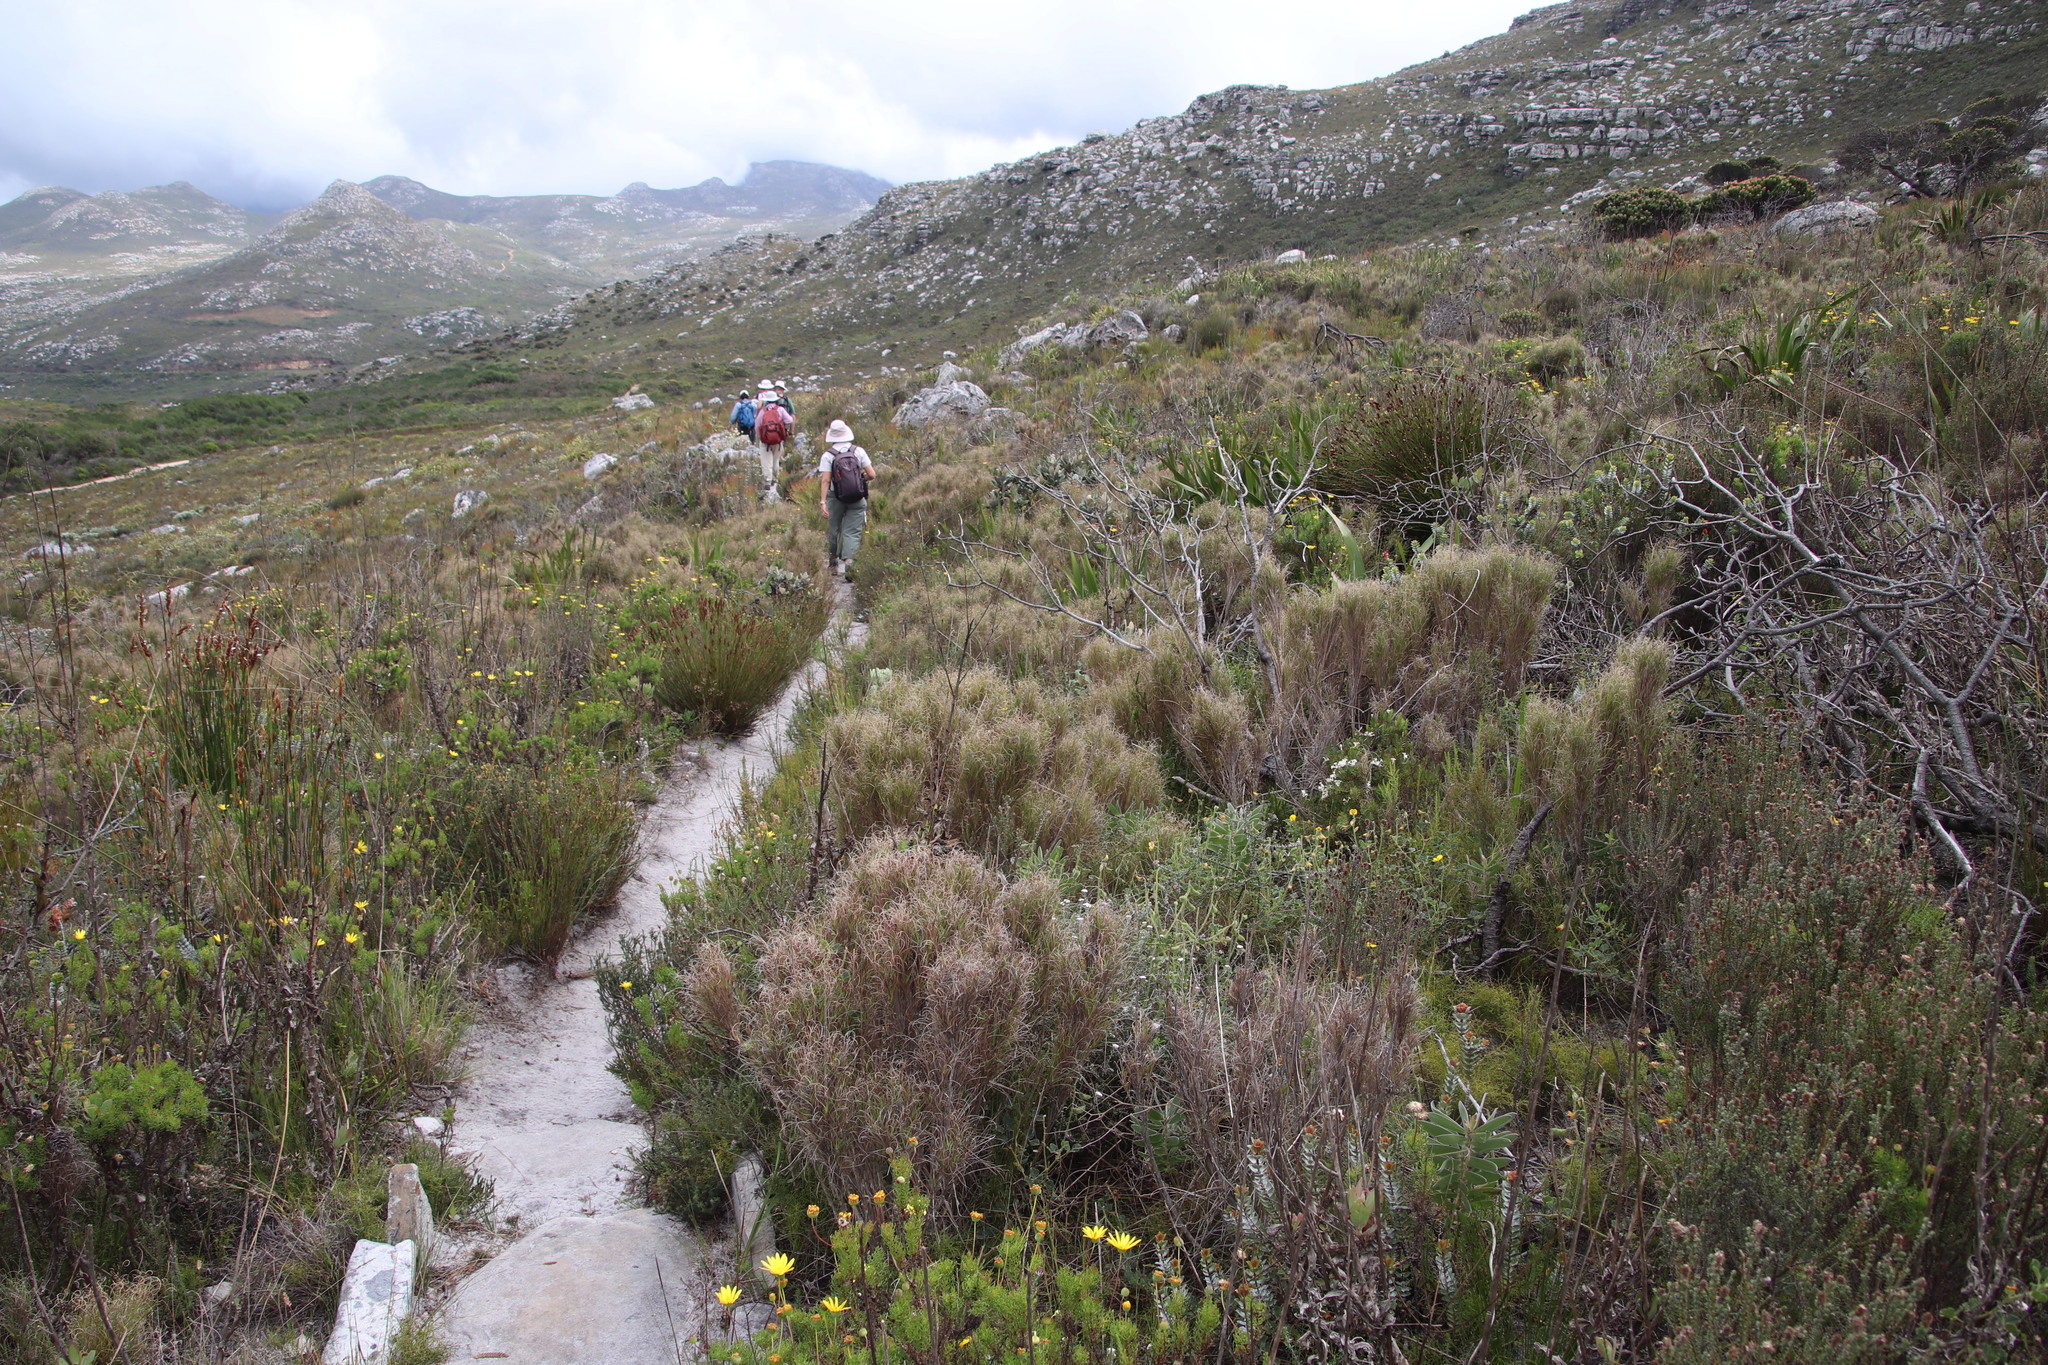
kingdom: Plantae
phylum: Tracheophyta
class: Liliopsida
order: Poales
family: Poaceae
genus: Pseudopentameris
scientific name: Pseudopentameris macrantha
